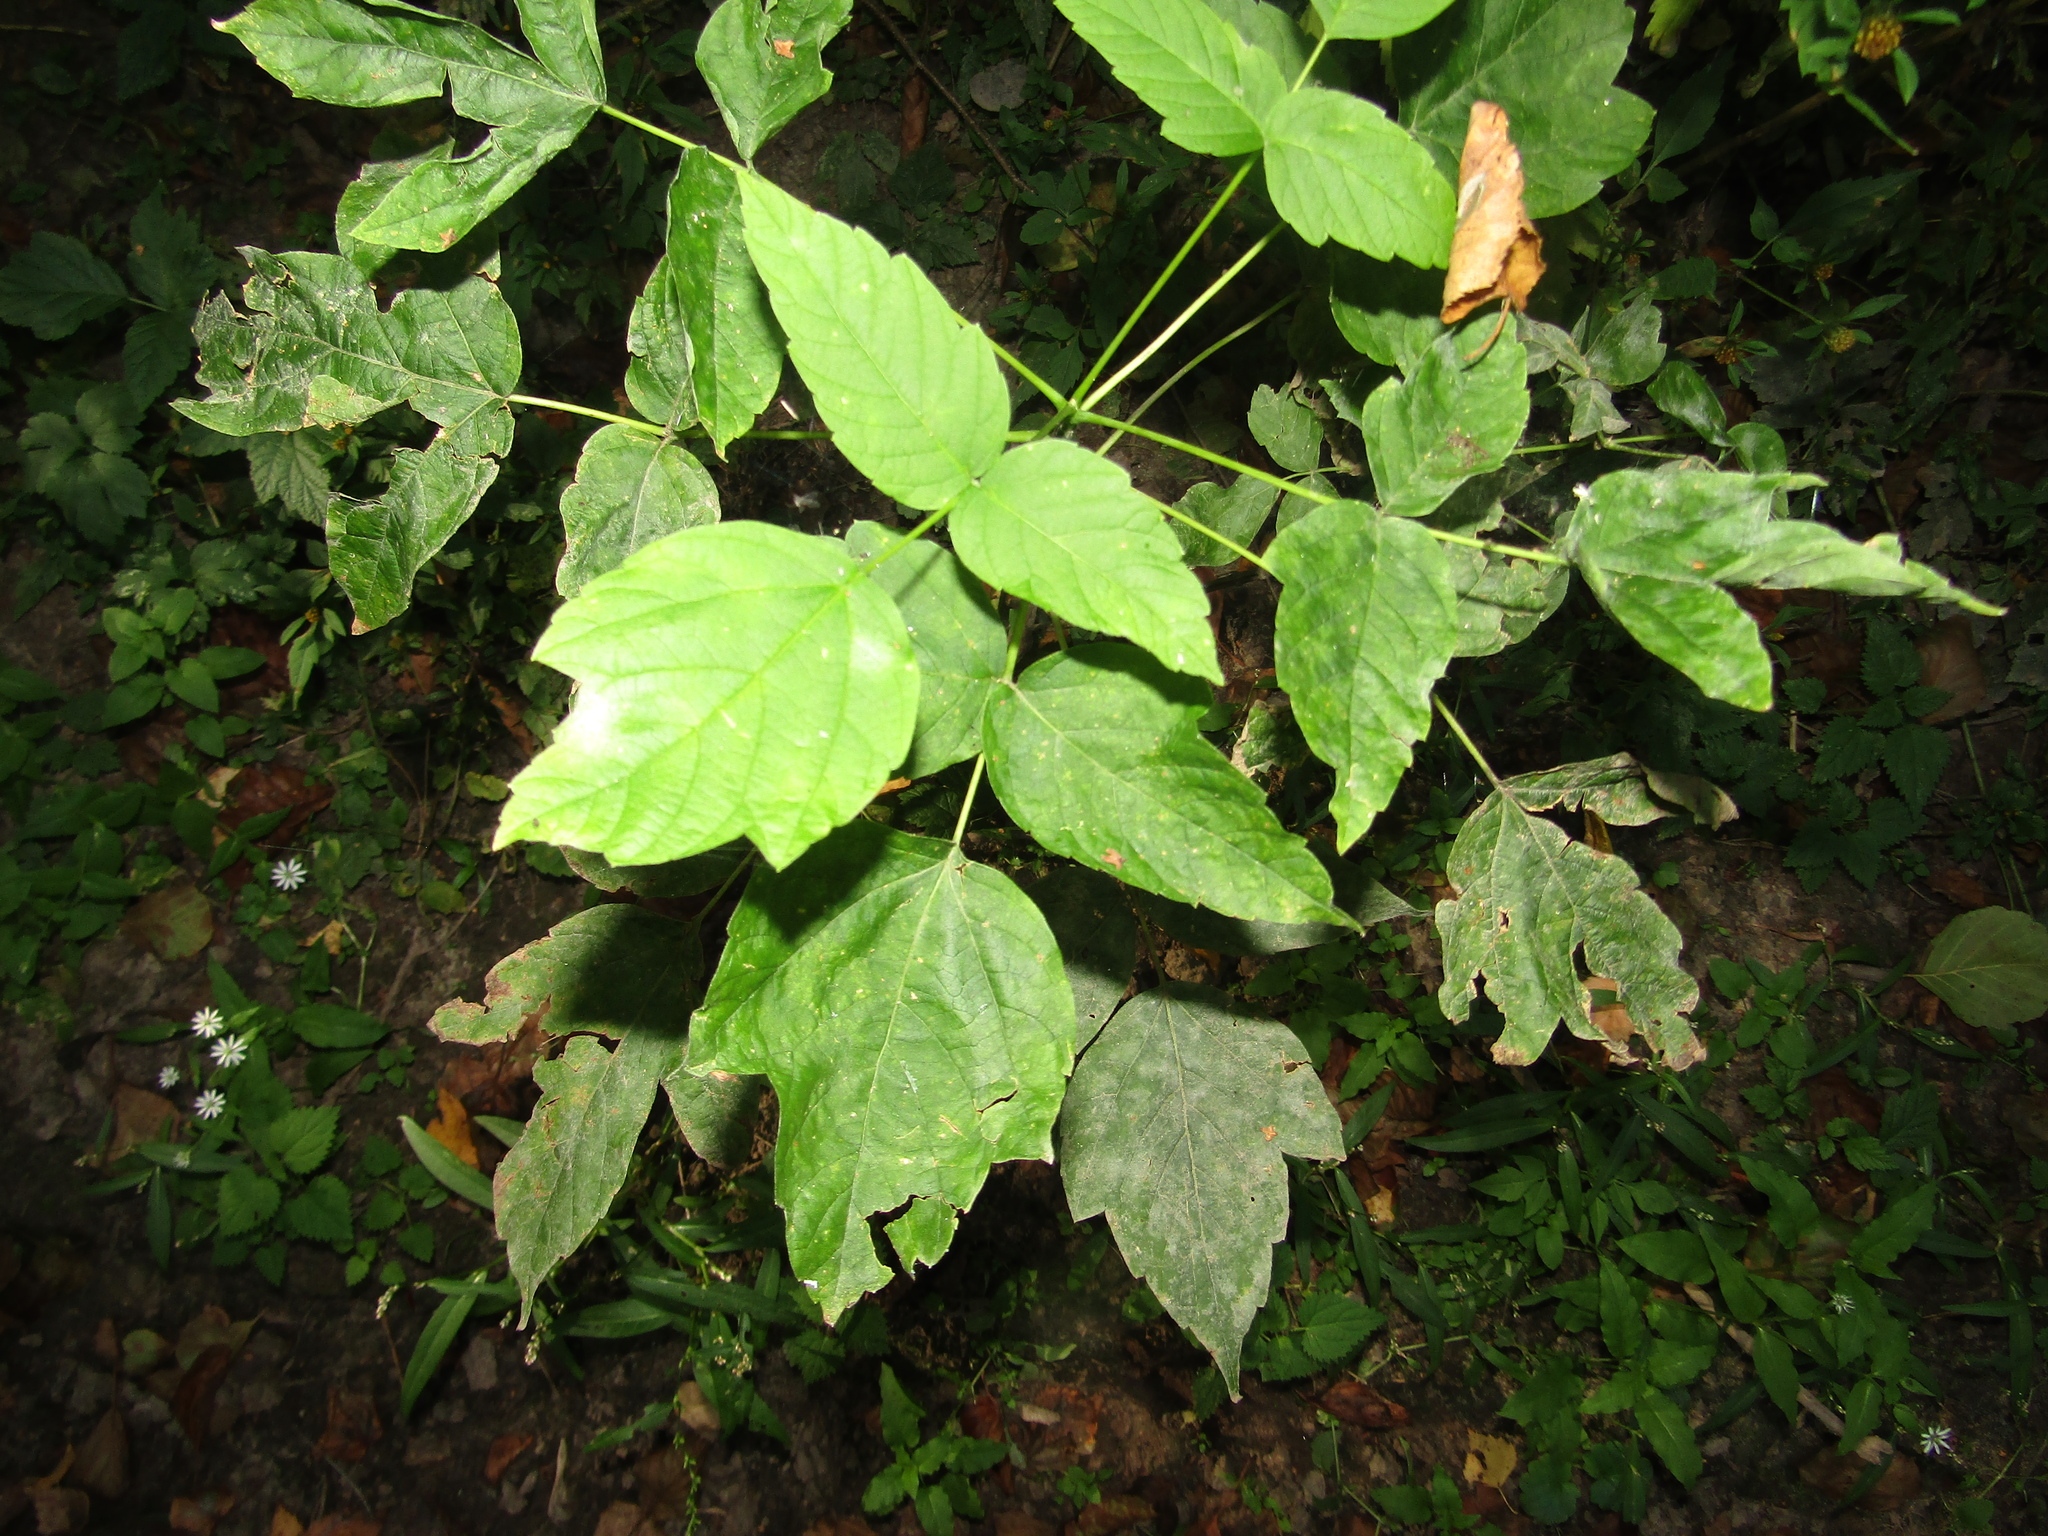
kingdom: Plantae
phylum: Tracheophyta
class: Magnoliopsida
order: Sapindales
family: Sapindaceae
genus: Acer
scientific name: Acer negundo
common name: Ashleaf maple
